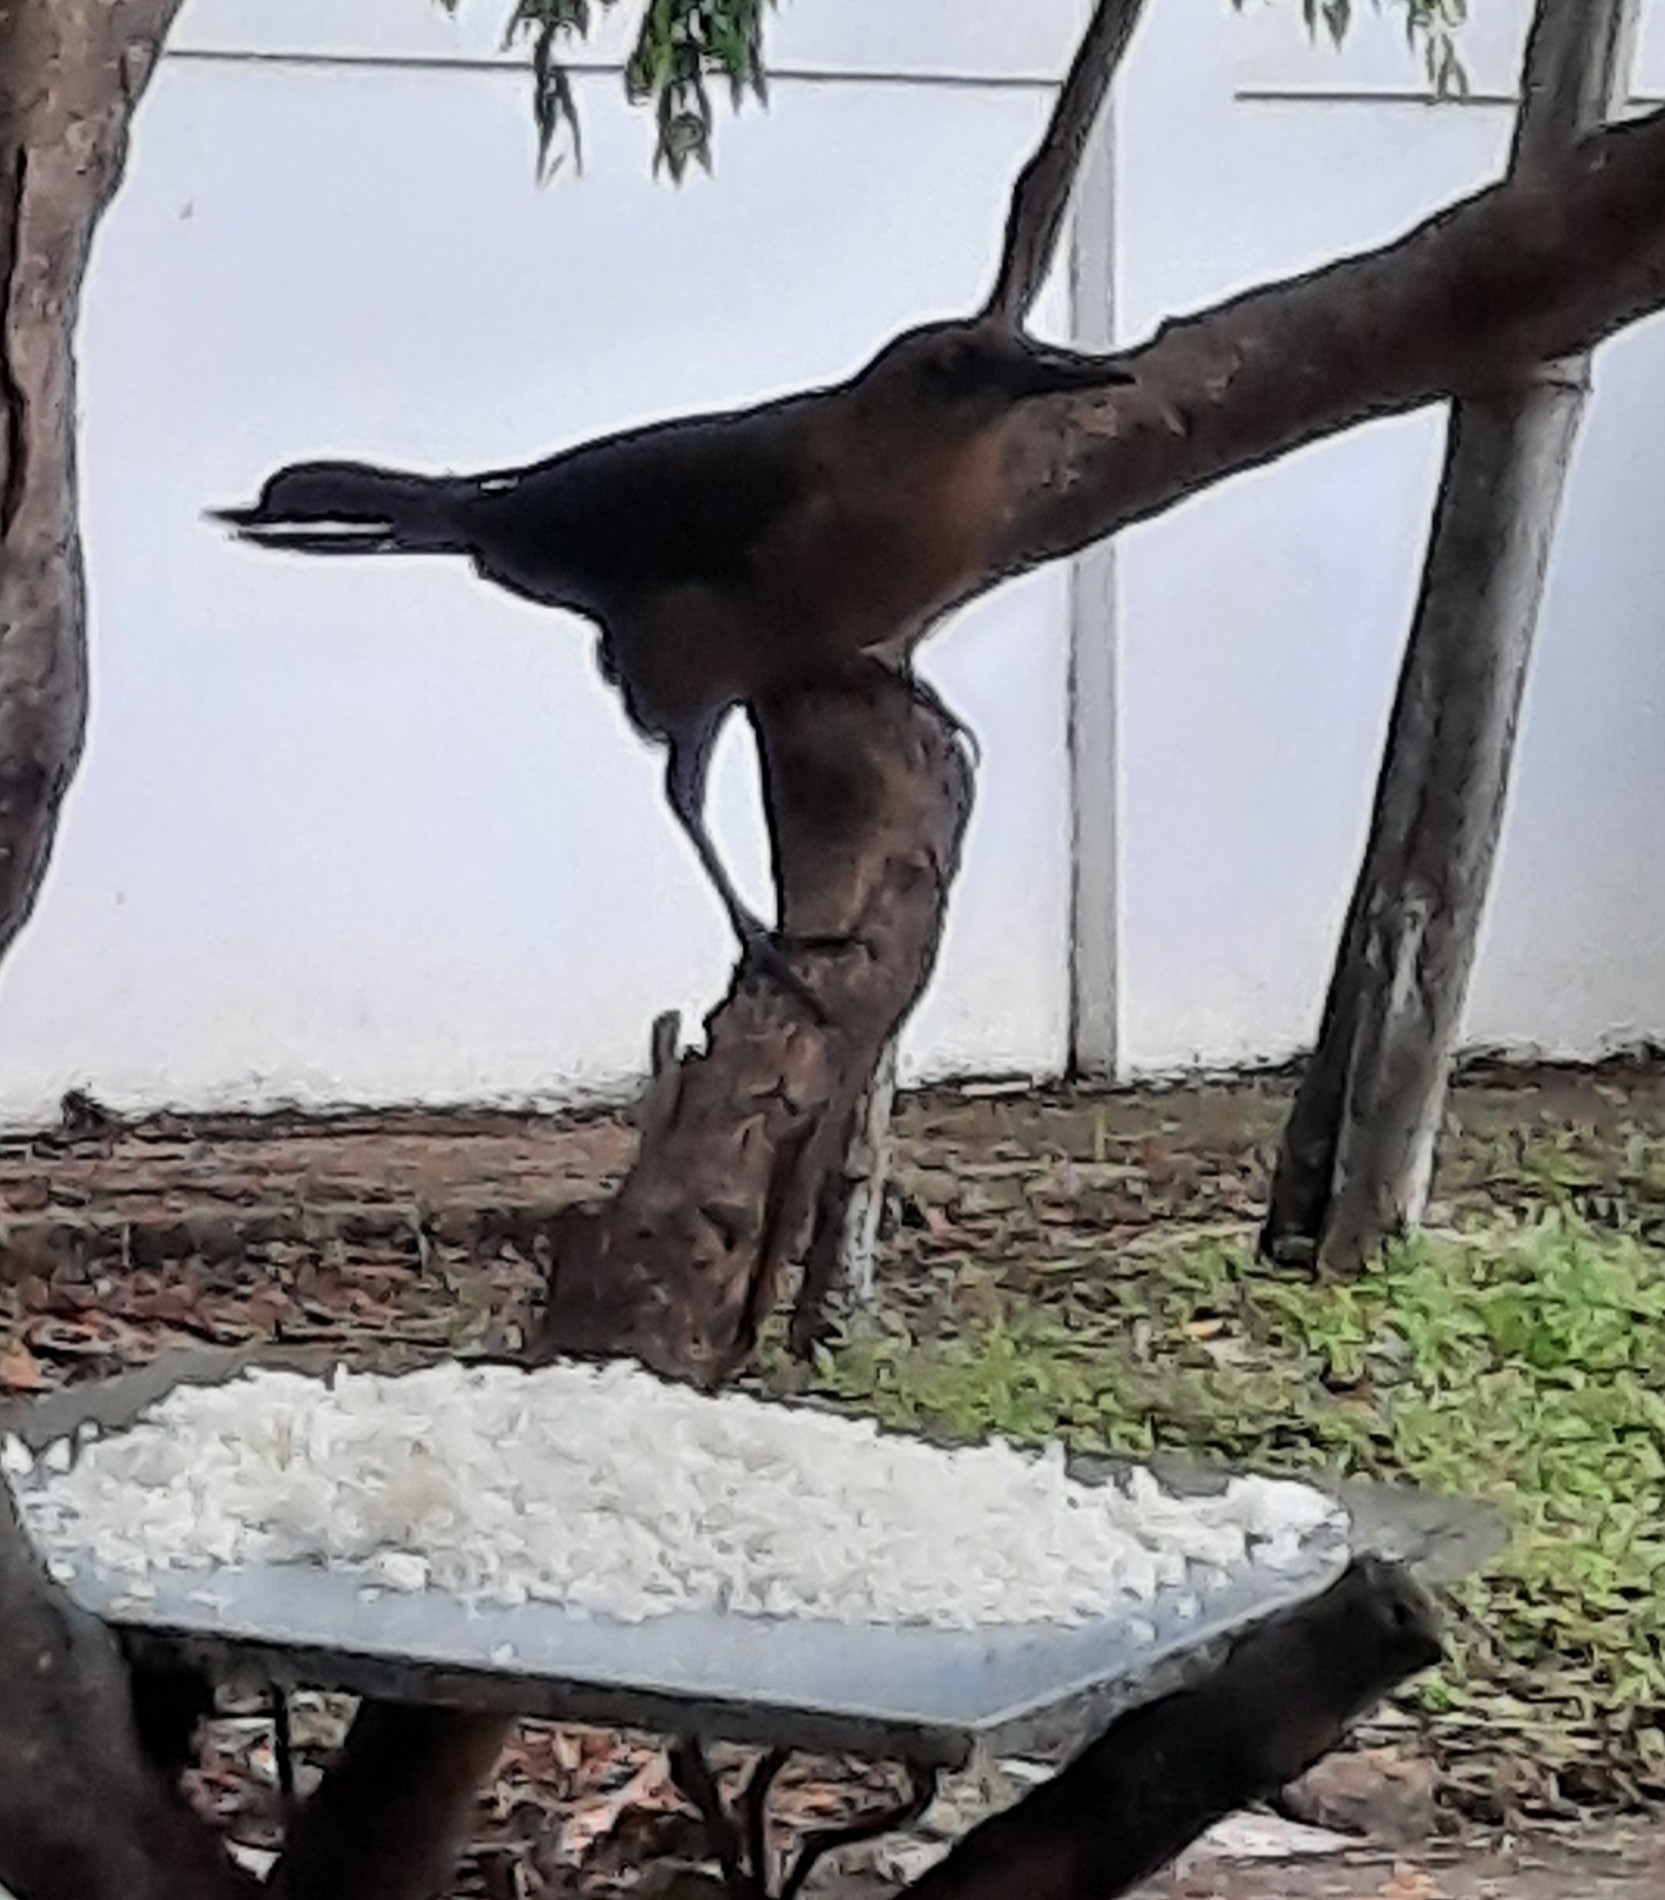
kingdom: Animalia
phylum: Chordata
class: Aves
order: Passeriformes
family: Icteridae
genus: Quiscalus
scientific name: Quiscalus mexicanus
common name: Great-tailed grackle
